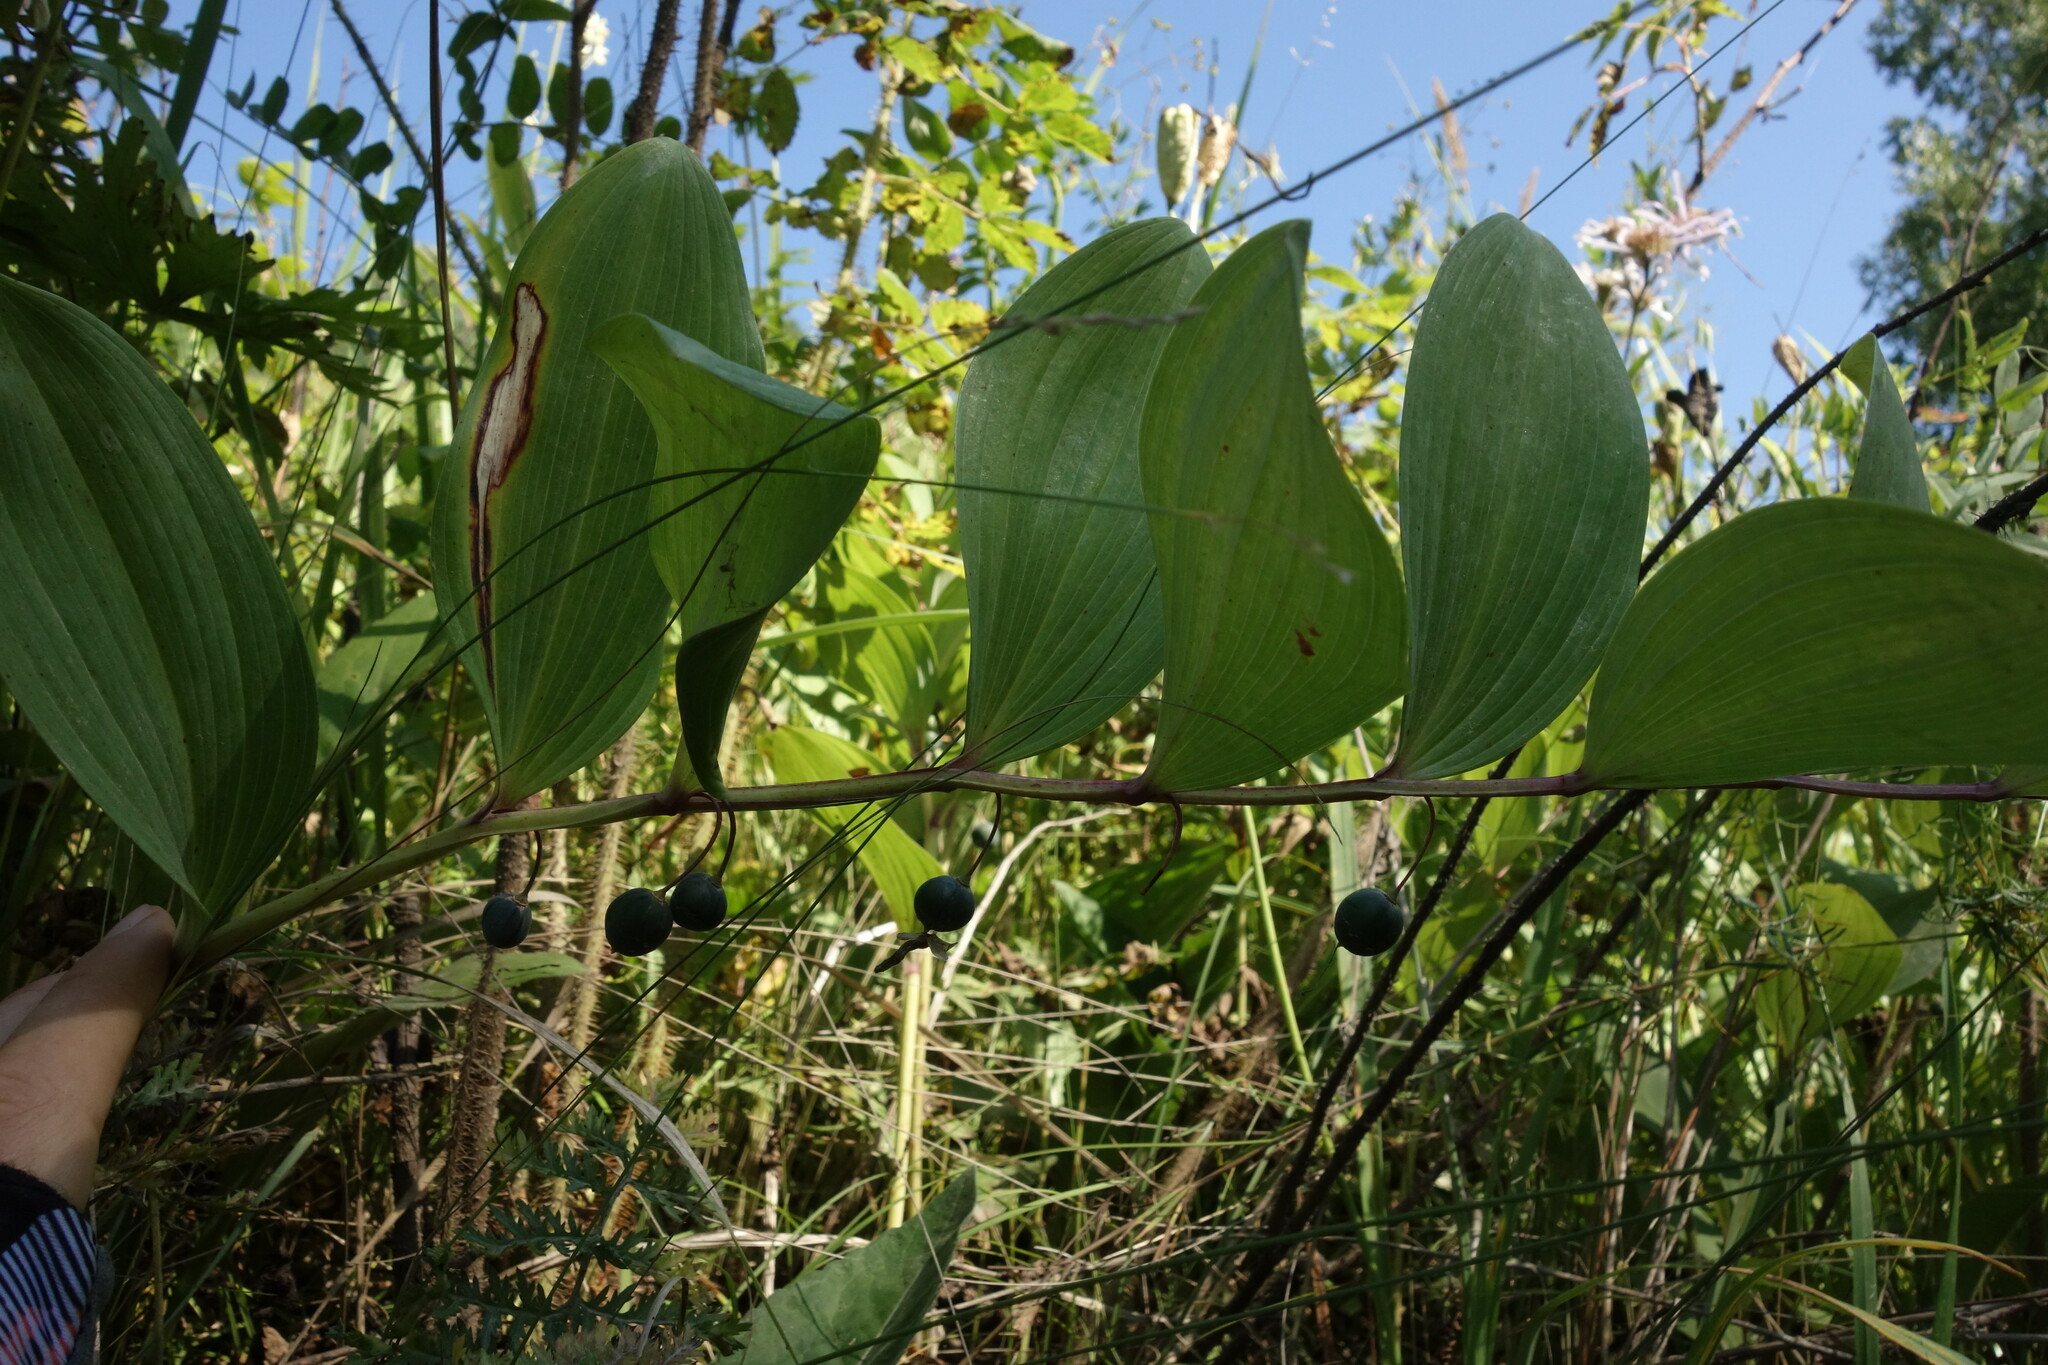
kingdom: Plantae
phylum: Tracheophyta
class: Liliopsida
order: Asparagales
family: Asparagaceae
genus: Polygonatum
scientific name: Polygonatum odoratum
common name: Angular solomon's-seal
